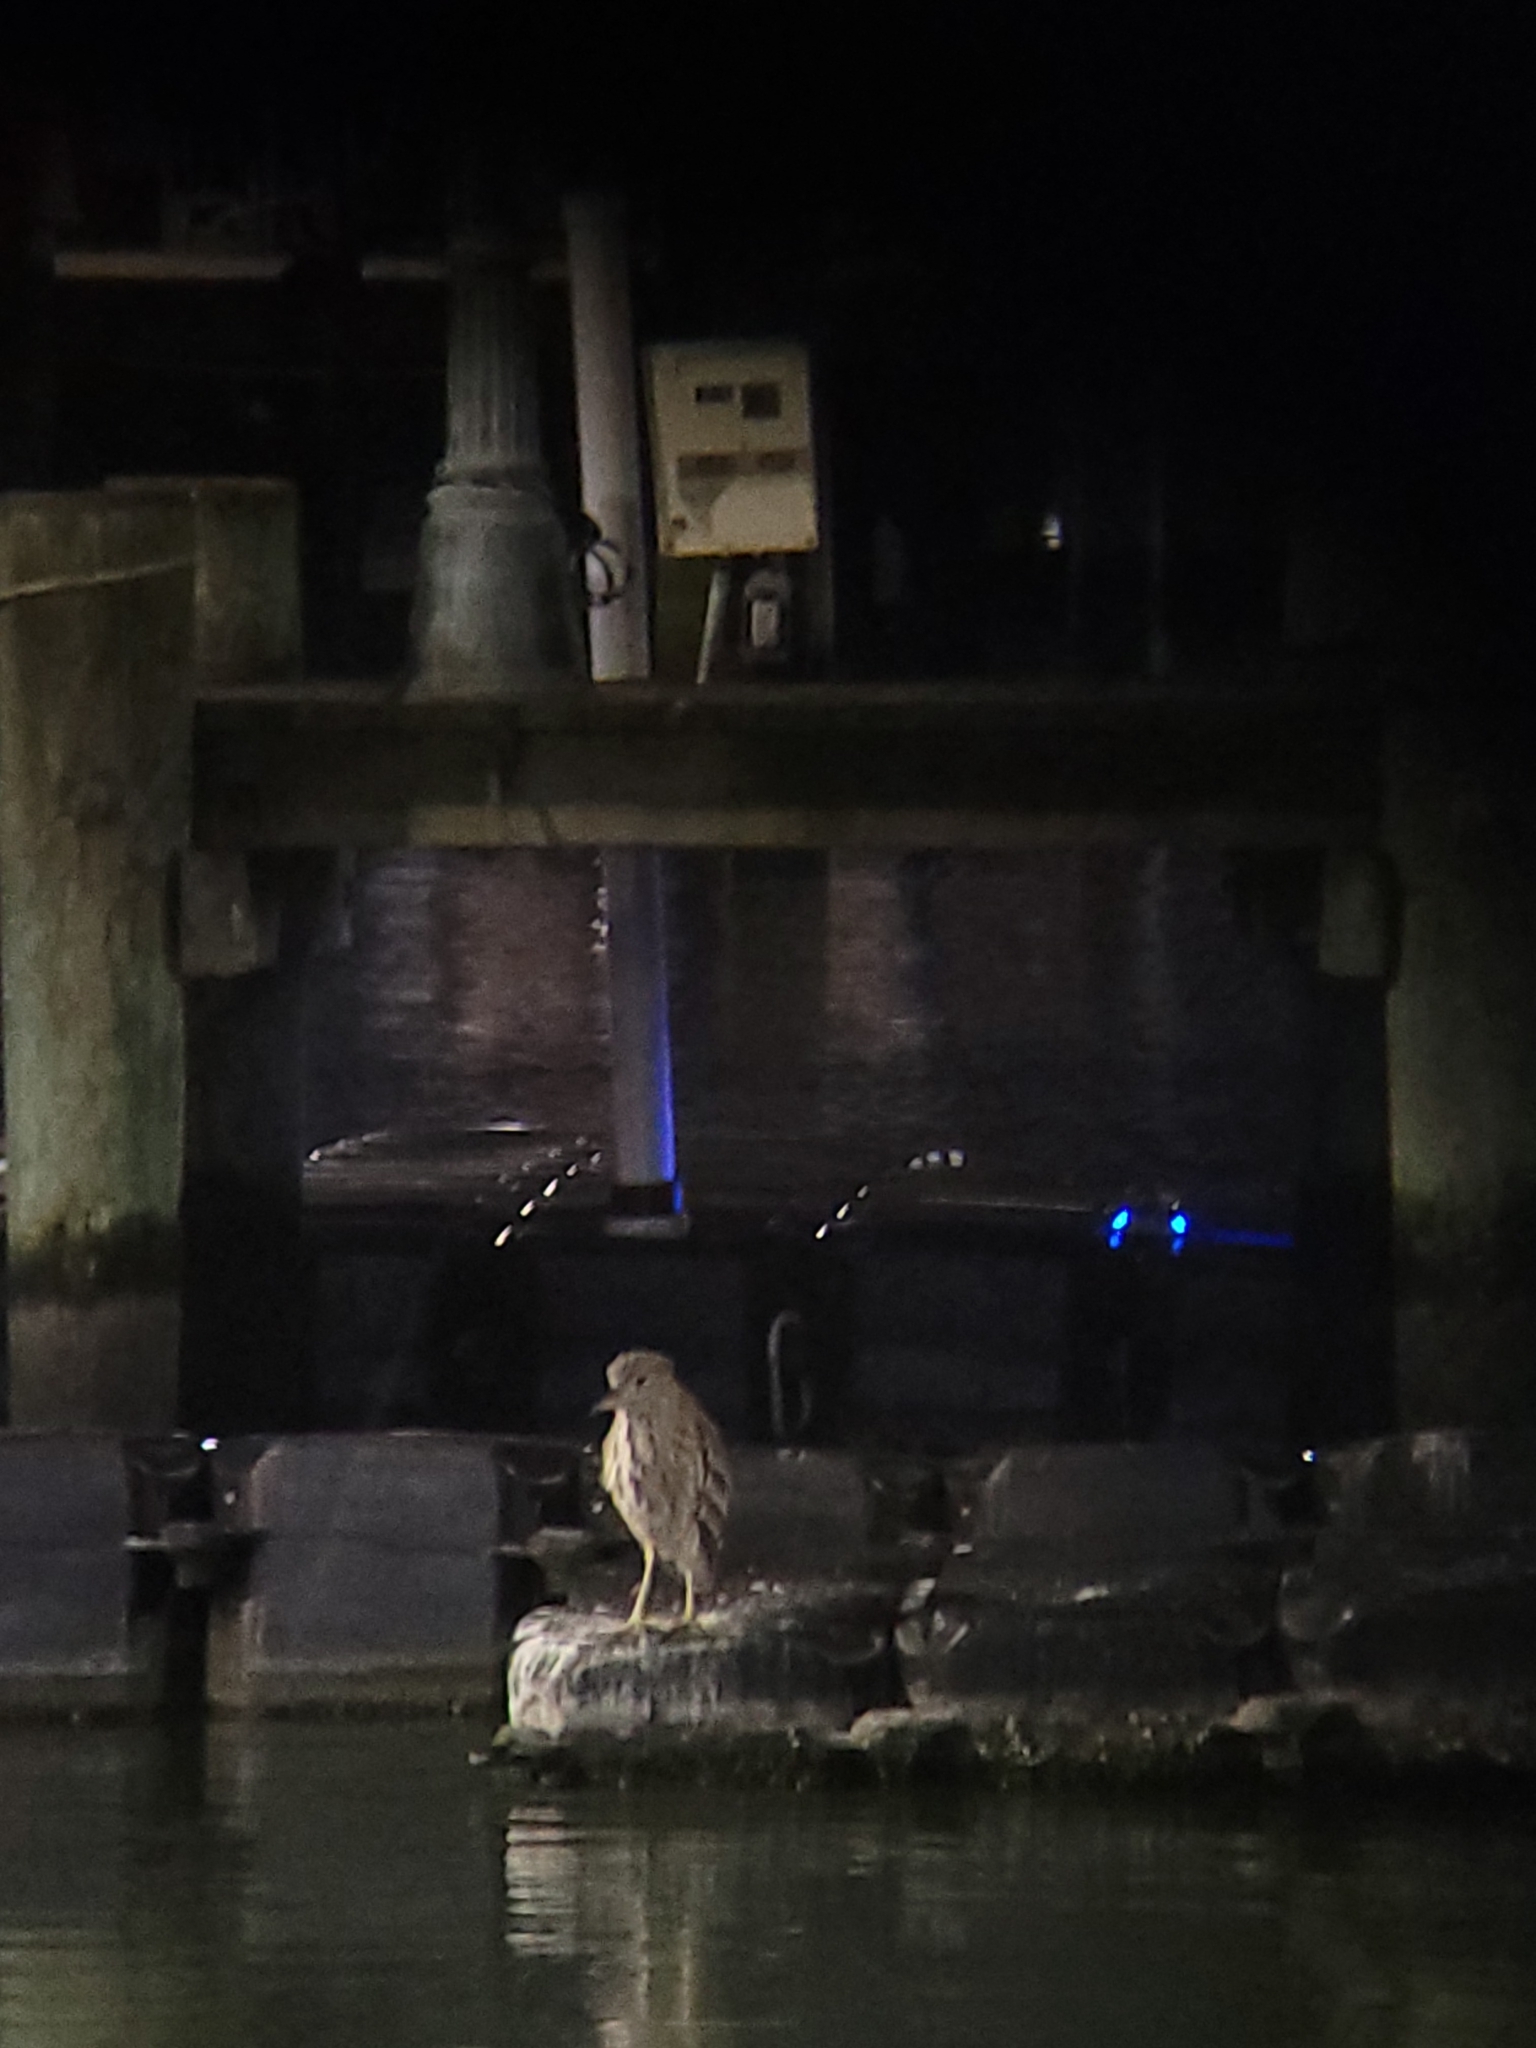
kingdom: Animalia
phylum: Chordata
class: Aves
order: Pelecaniformes
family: Ardeidae
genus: Nycticorax
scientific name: Nycticorax nycticorax
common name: Black-crowned night heron
